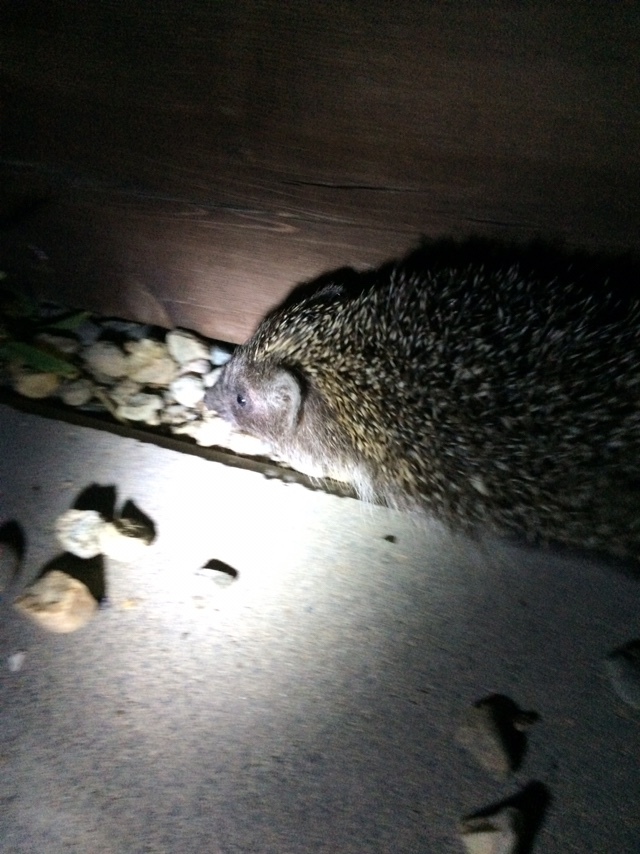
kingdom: Animalia
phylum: Chordata
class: Mammalia
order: Erinaceomorpha
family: Erinaceidae
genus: Erinaceus
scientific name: Erinaceus roumanicus
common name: Northern white-breasted hedgehog
